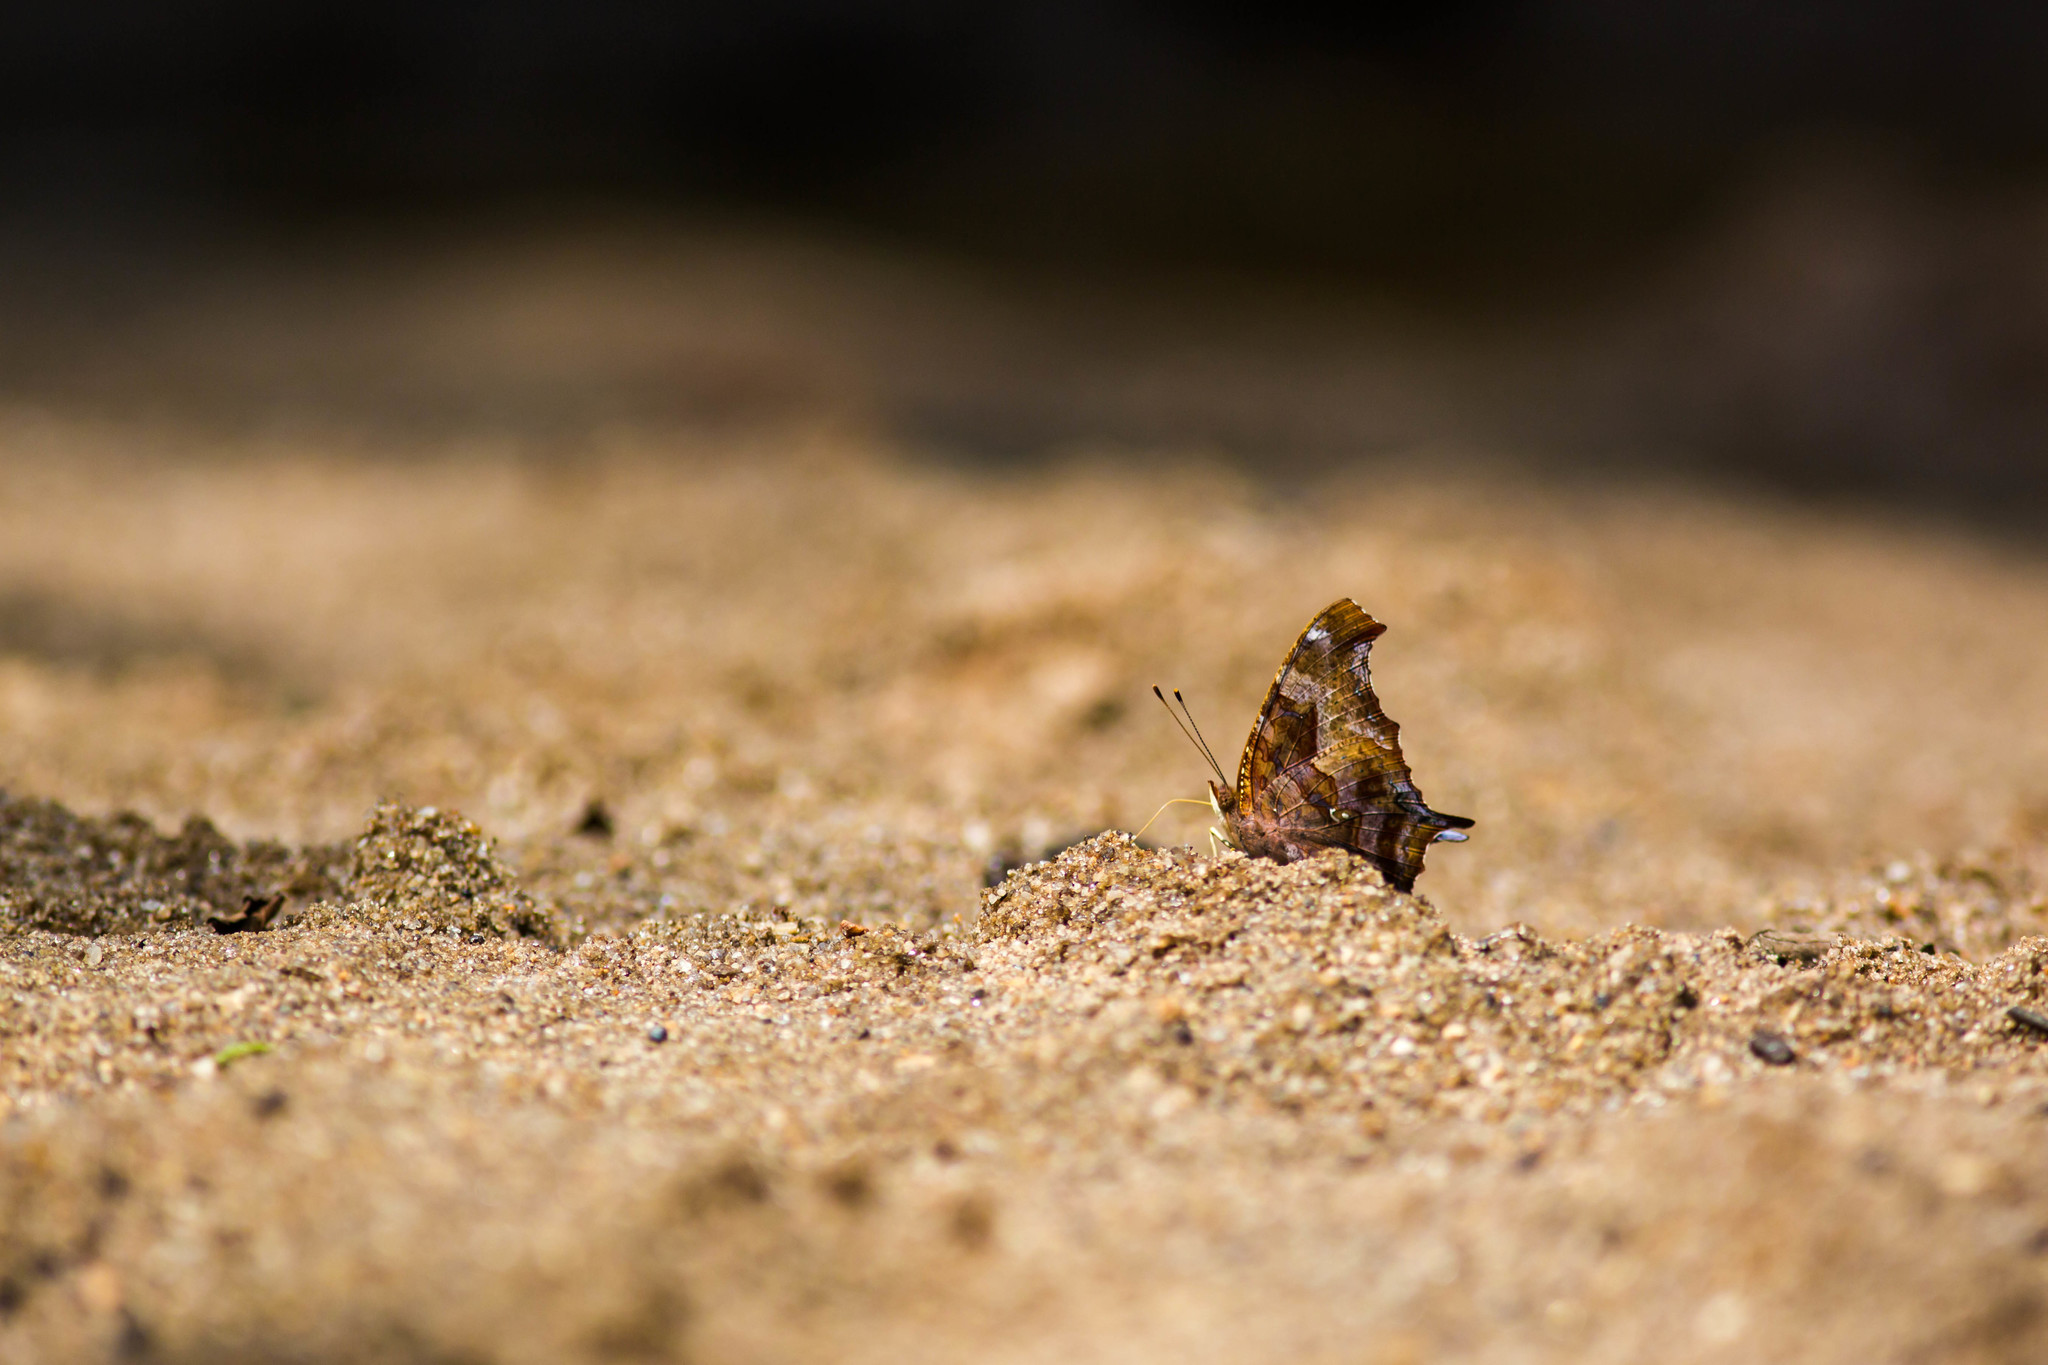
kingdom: Animalia
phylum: Arthropoda
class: Insecta
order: Lepidoptera
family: Nymphalidae
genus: Polygonia
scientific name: Polygonia interrogationis
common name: Question mark
